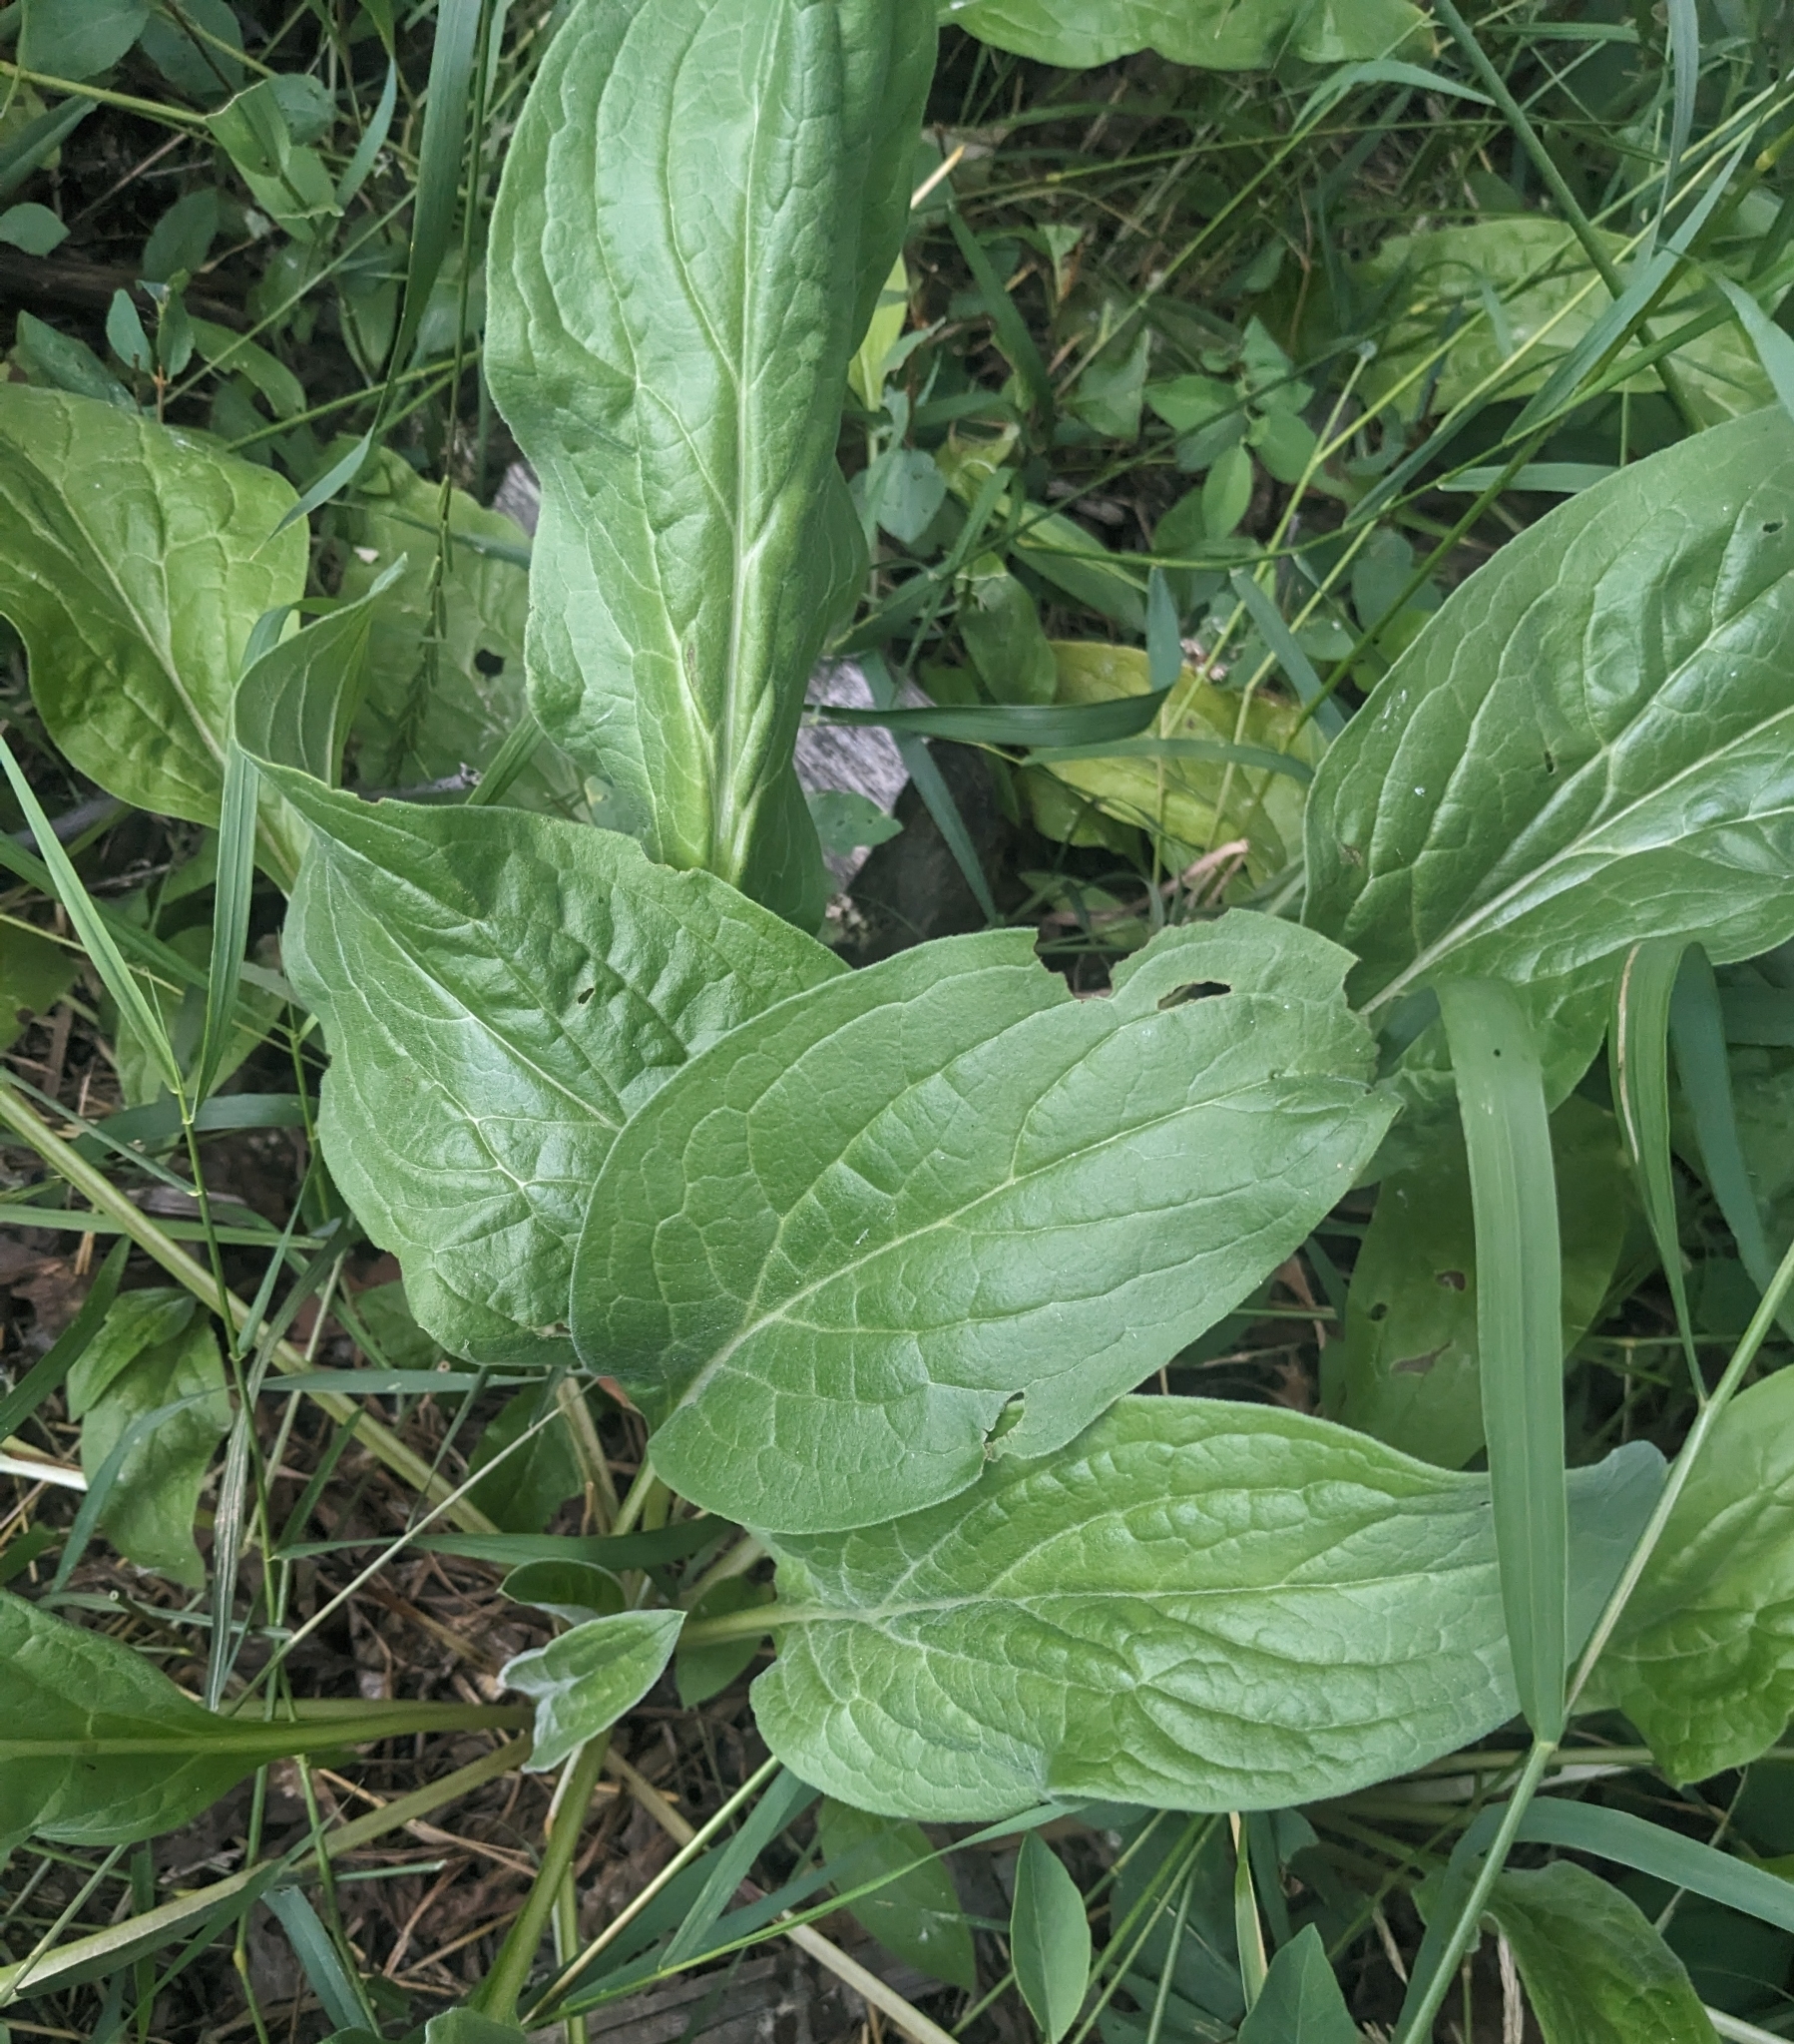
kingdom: Plantae
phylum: Tracheophyta
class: Magnoliopsida
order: Boraginales
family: Boraginaceae
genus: Cynoglossum
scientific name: Cynoglossum officinale
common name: Hound's-tongue
